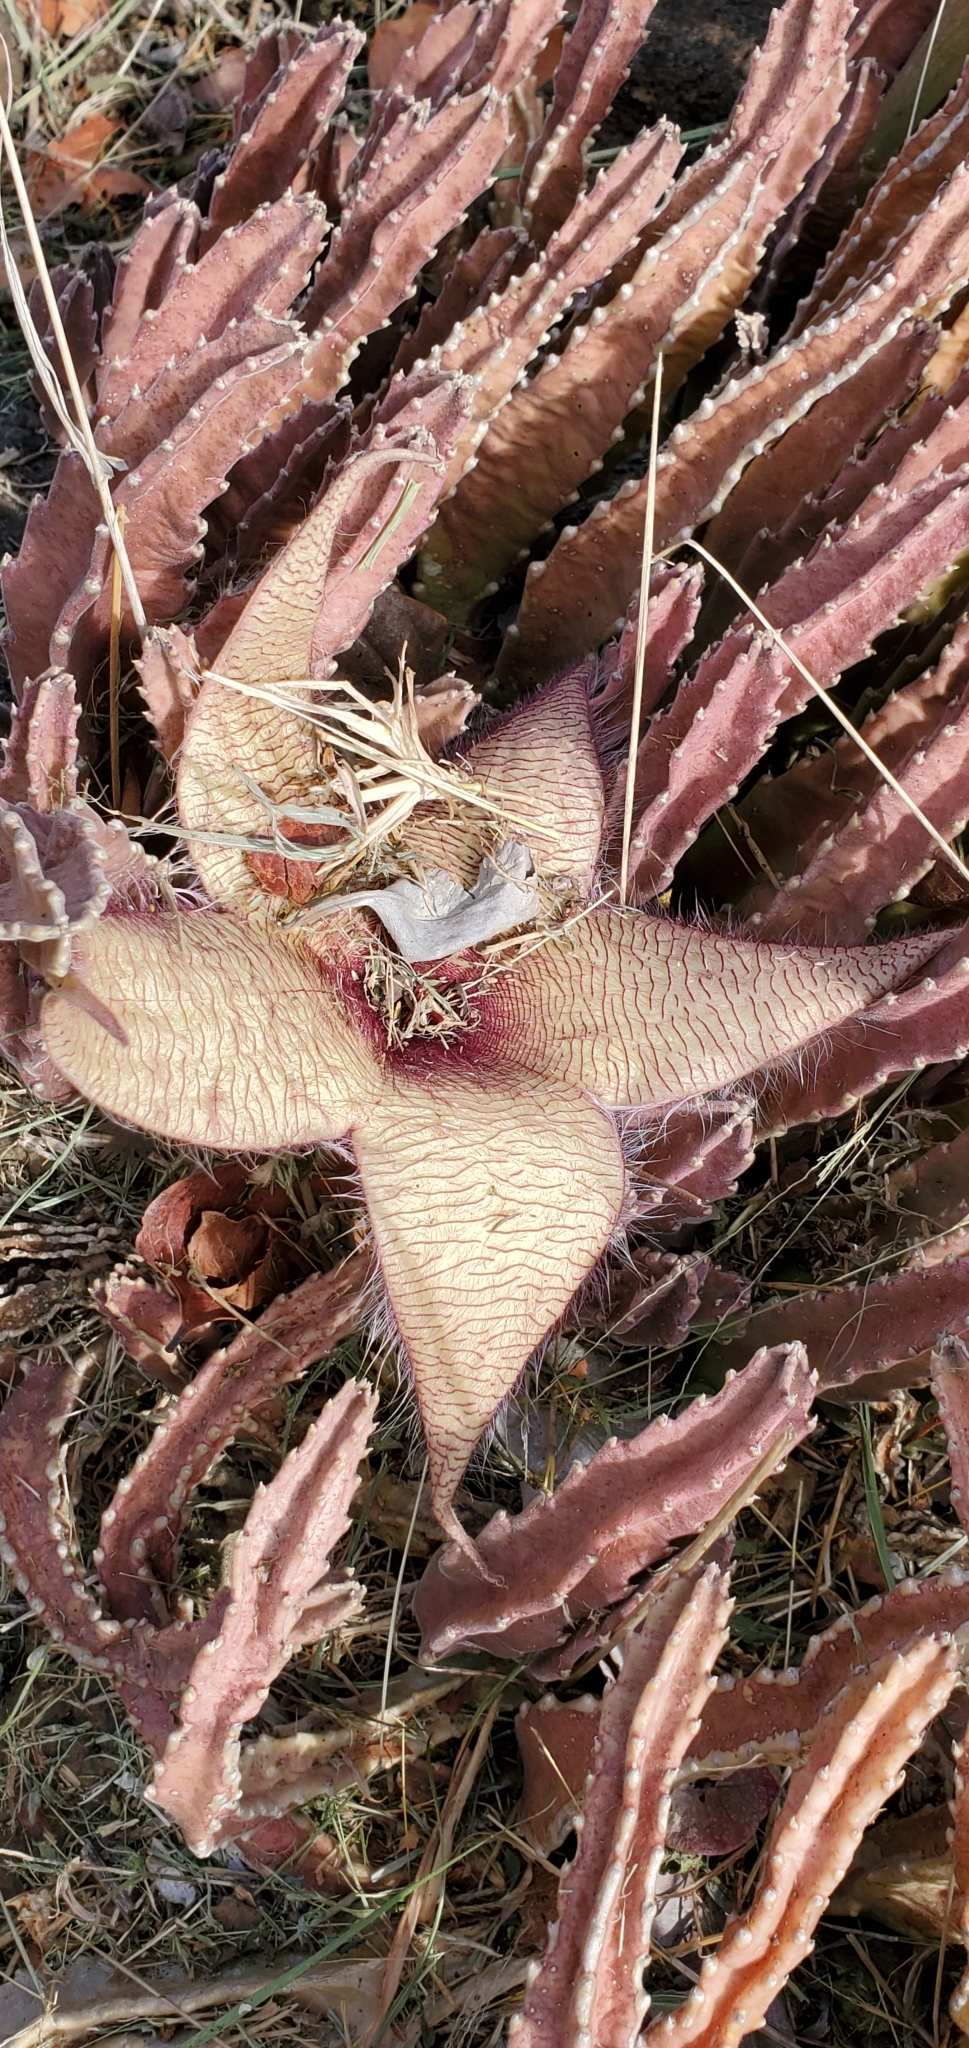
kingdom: Plantae
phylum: Tracheophyta
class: Magnoliopsida
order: Gentianales
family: Apocynaceae
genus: Ceropegia
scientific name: Ceropegia gigantea
